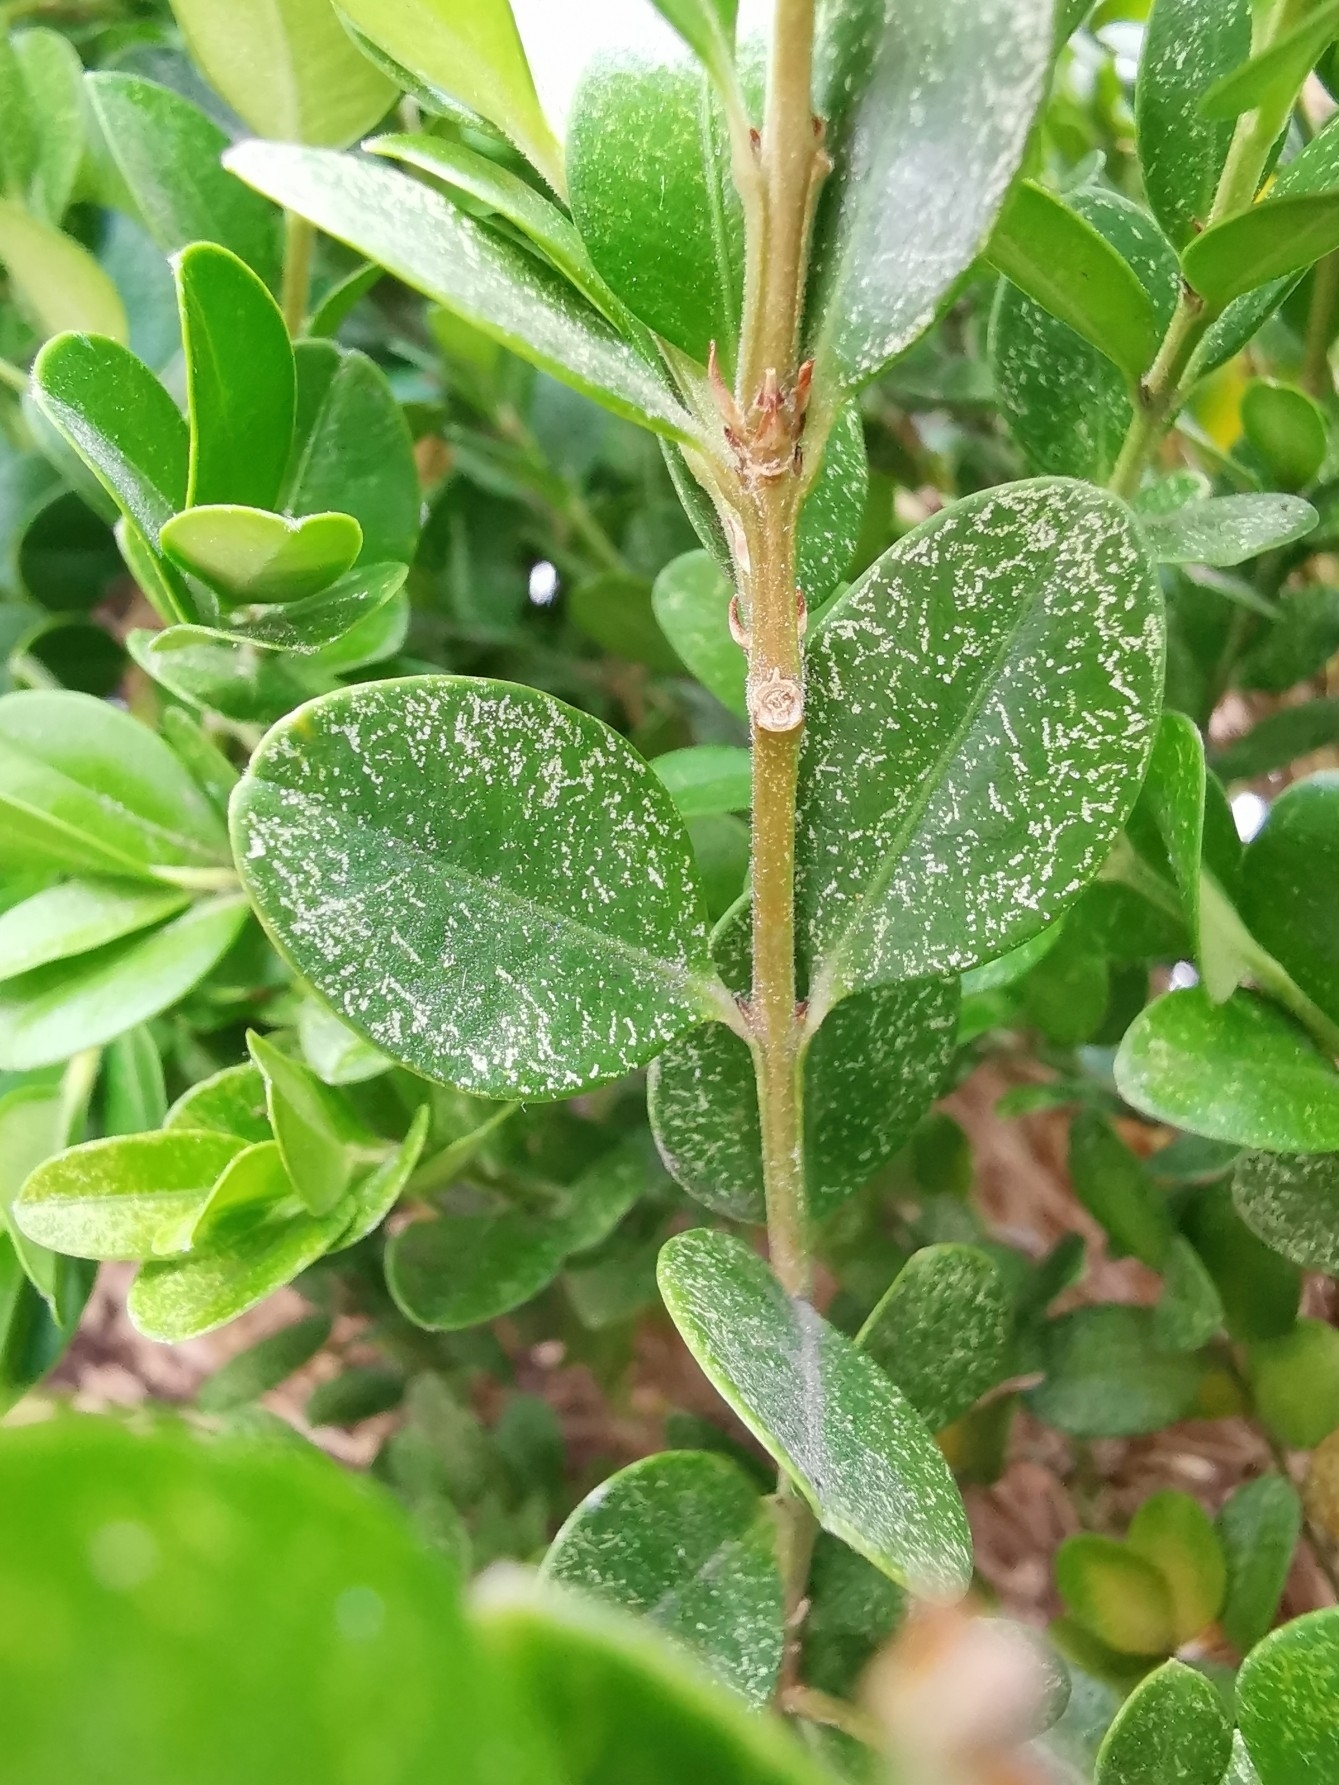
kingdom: Animalia
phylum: Arthropoda
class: Arachnida
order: Trombidiformes
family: Tetranychidae
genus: Eurytetranychus
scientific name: Eurytetranychus buxi
